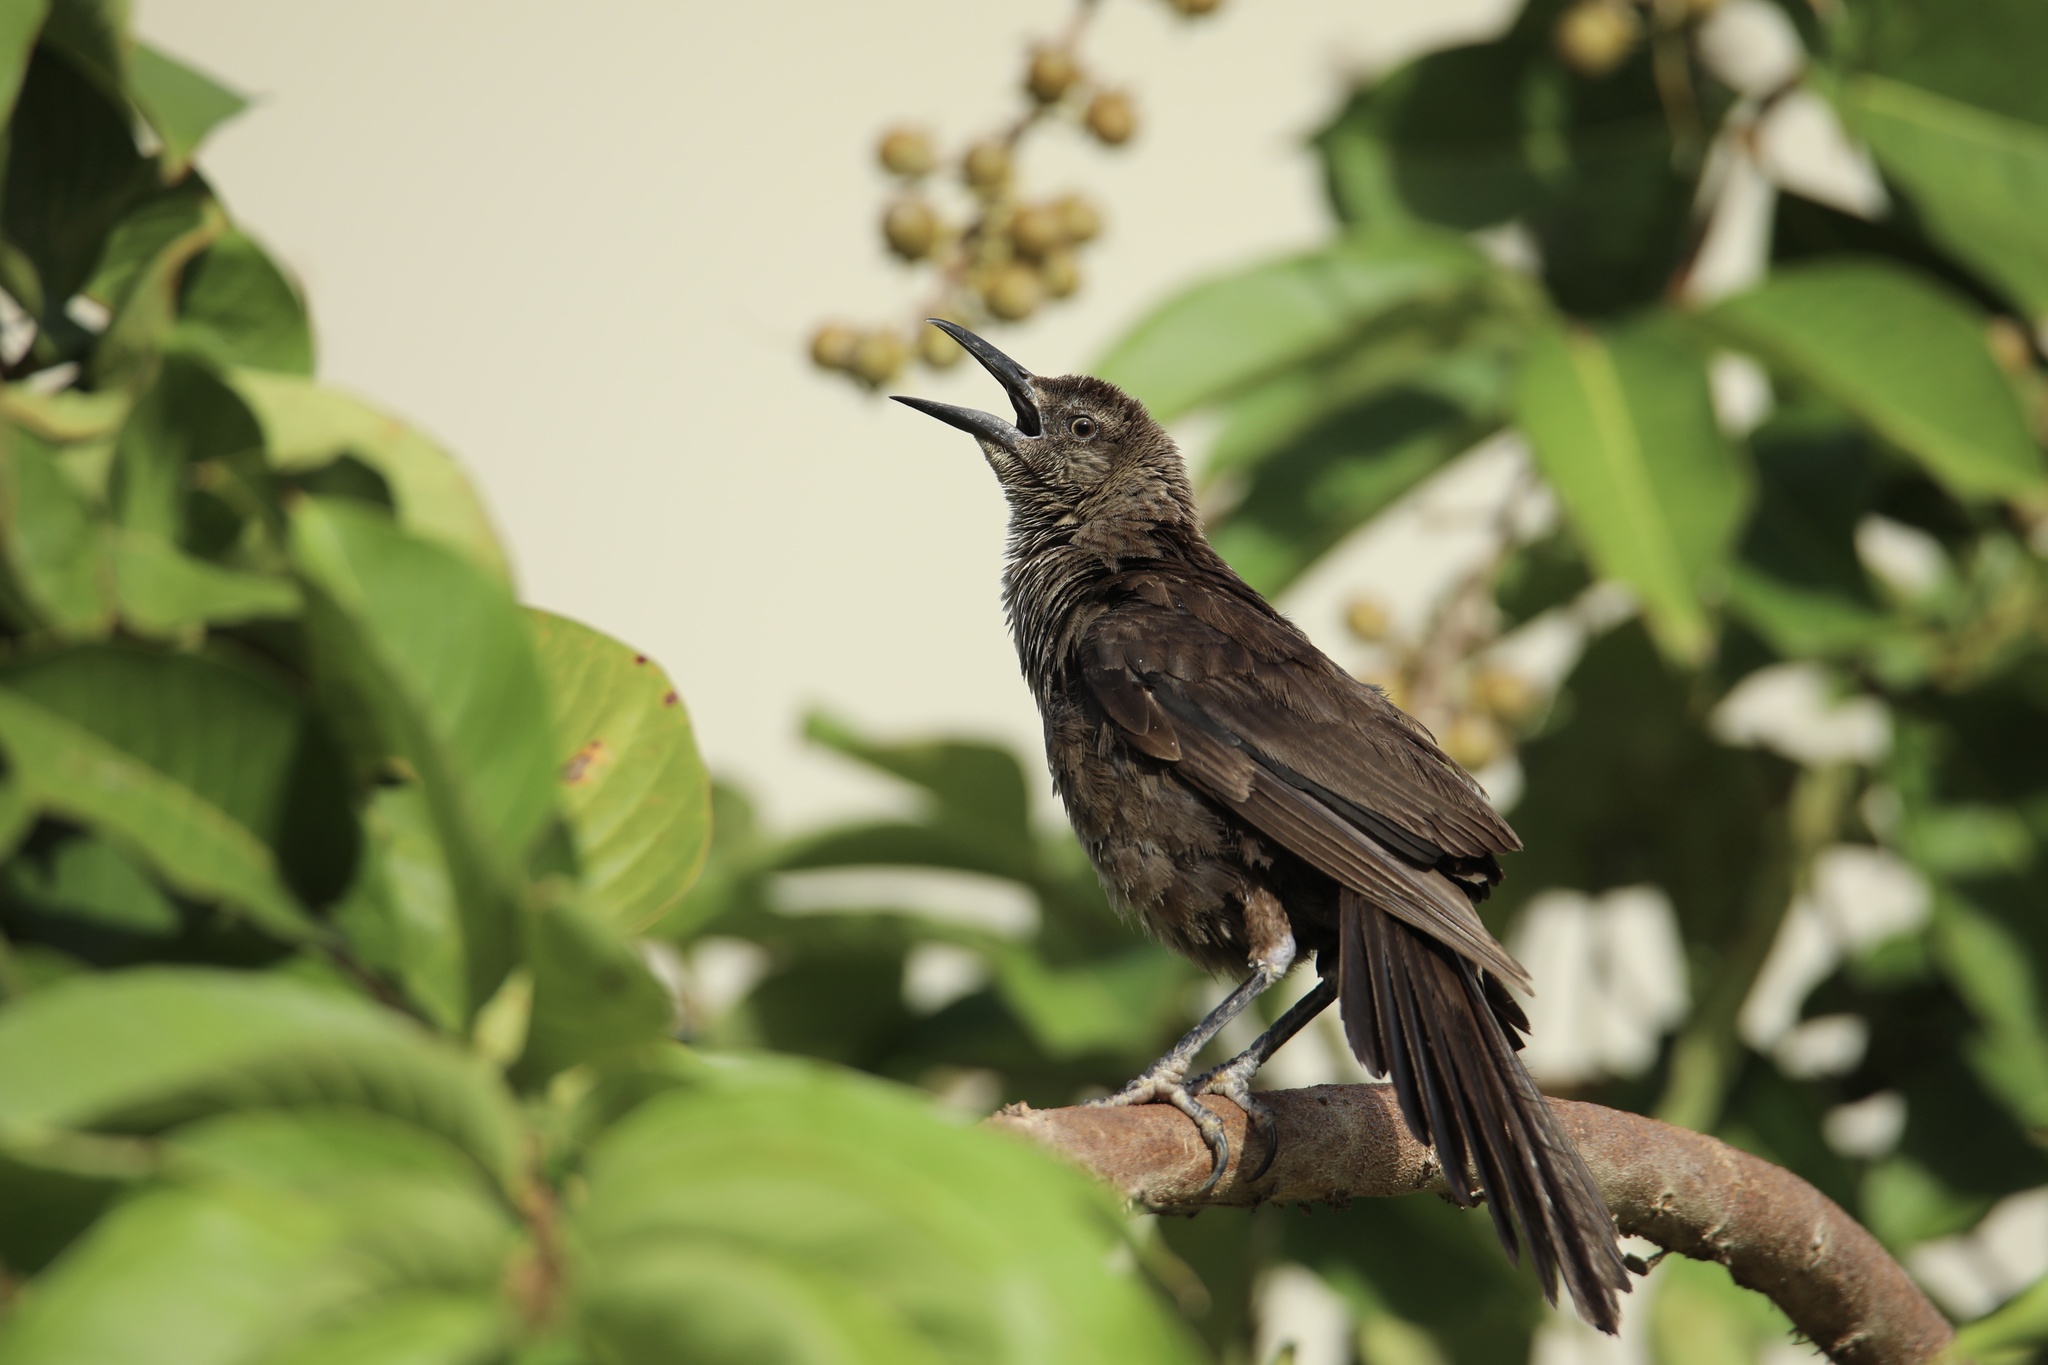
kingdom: Animalia
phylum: Chordata
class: Aves
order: Passeriformes
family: Icteridae
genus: Quiscalus
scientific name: Quiscalus mexicanus
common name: Great-tailed grackle
